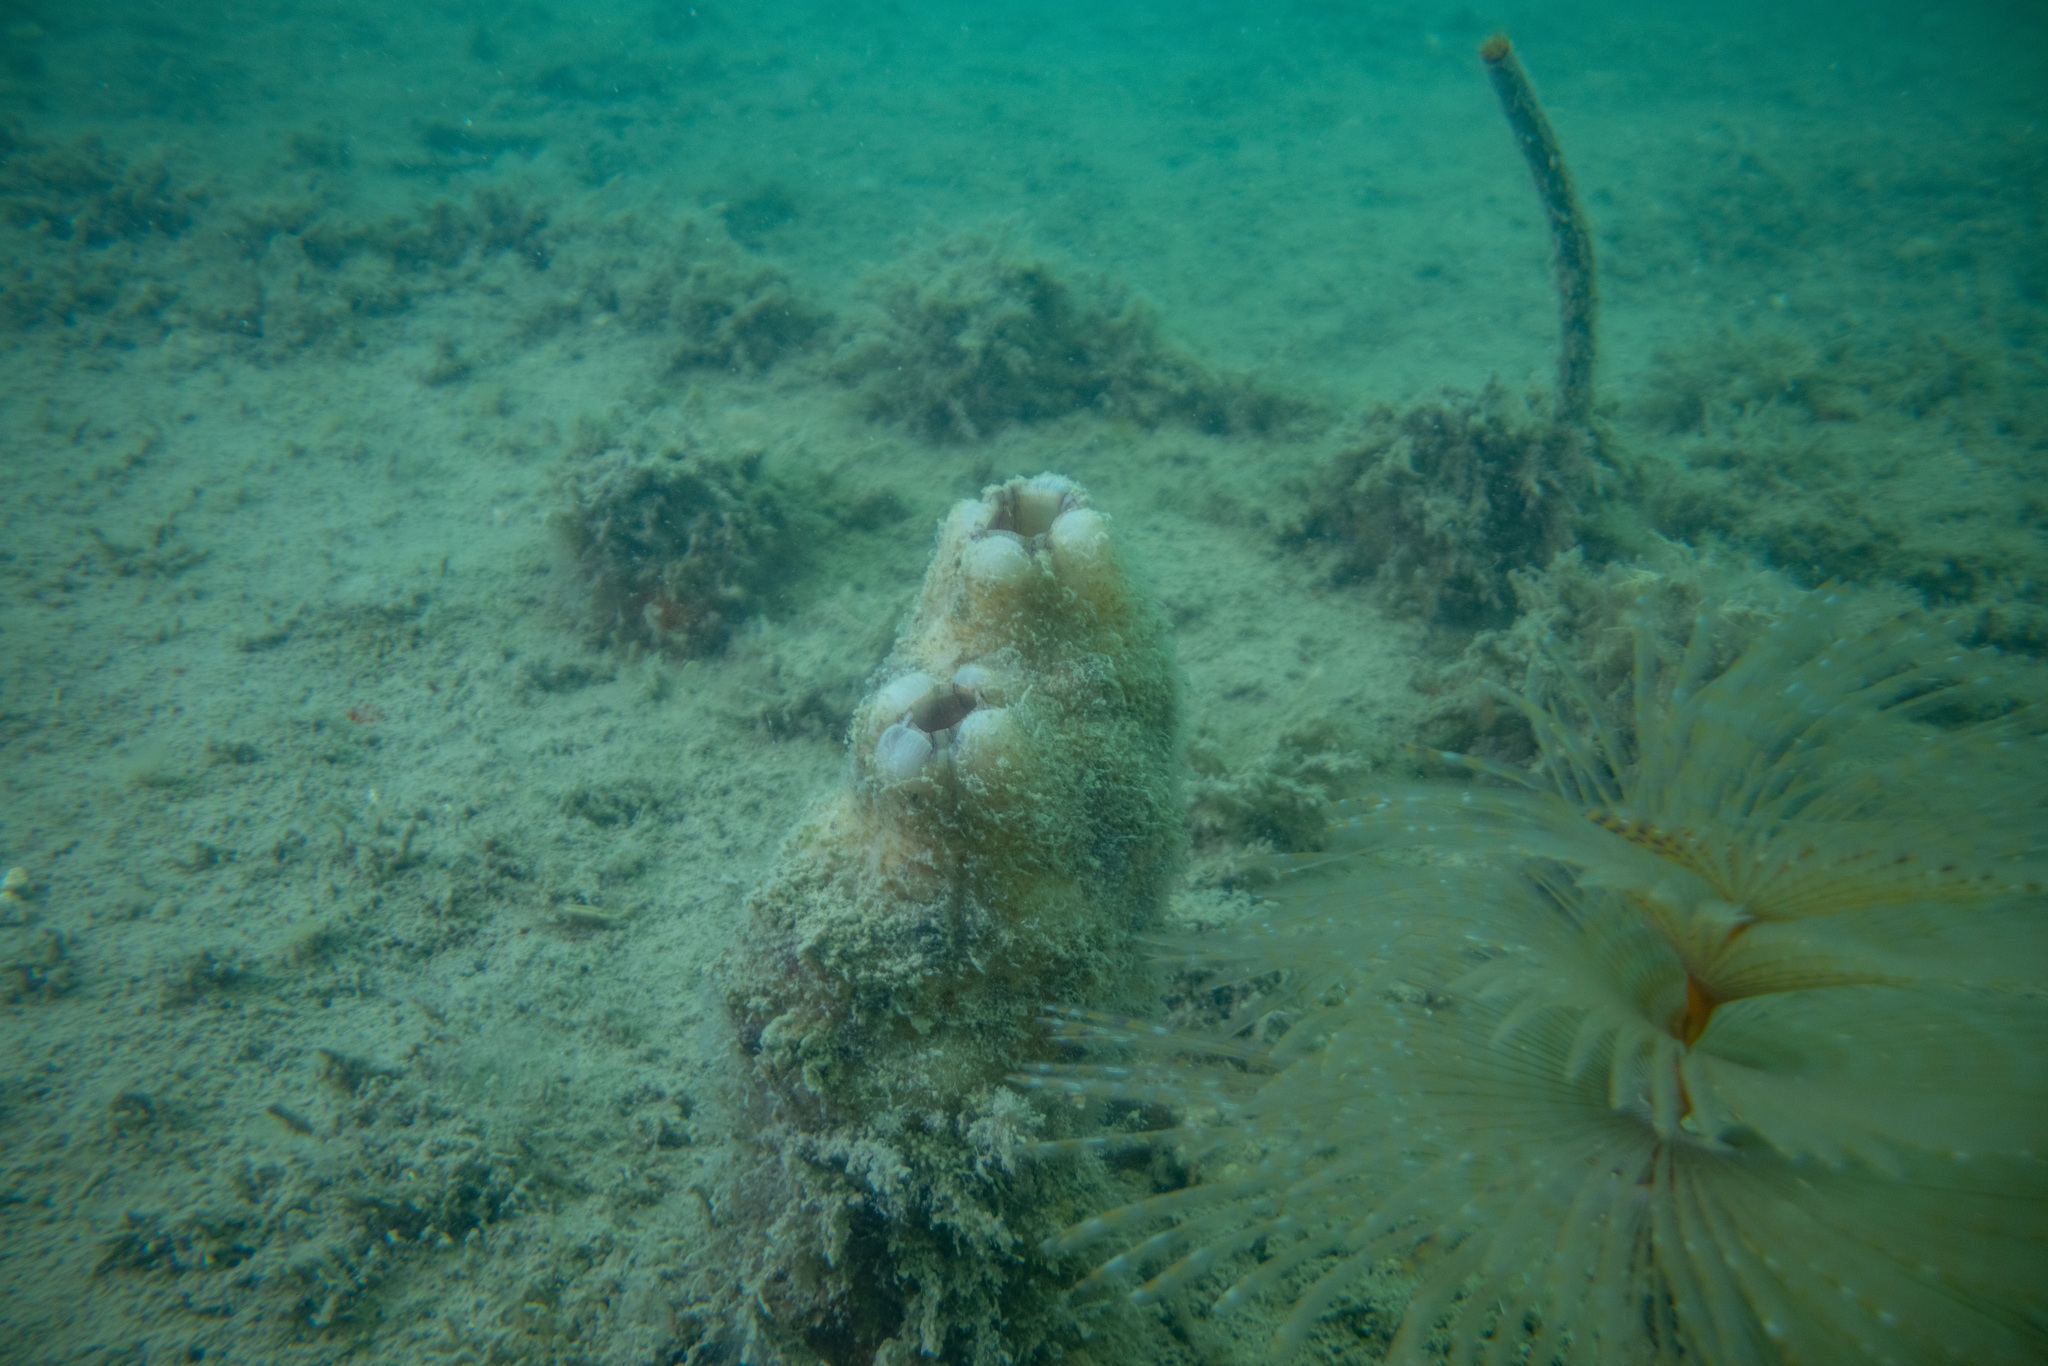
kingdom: Animalia
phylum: Chordata
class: Ascidiacea
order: Stolidobranchia
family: Styelidae
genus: Styela
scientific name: Styela plicata
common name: Pleated tunicate
